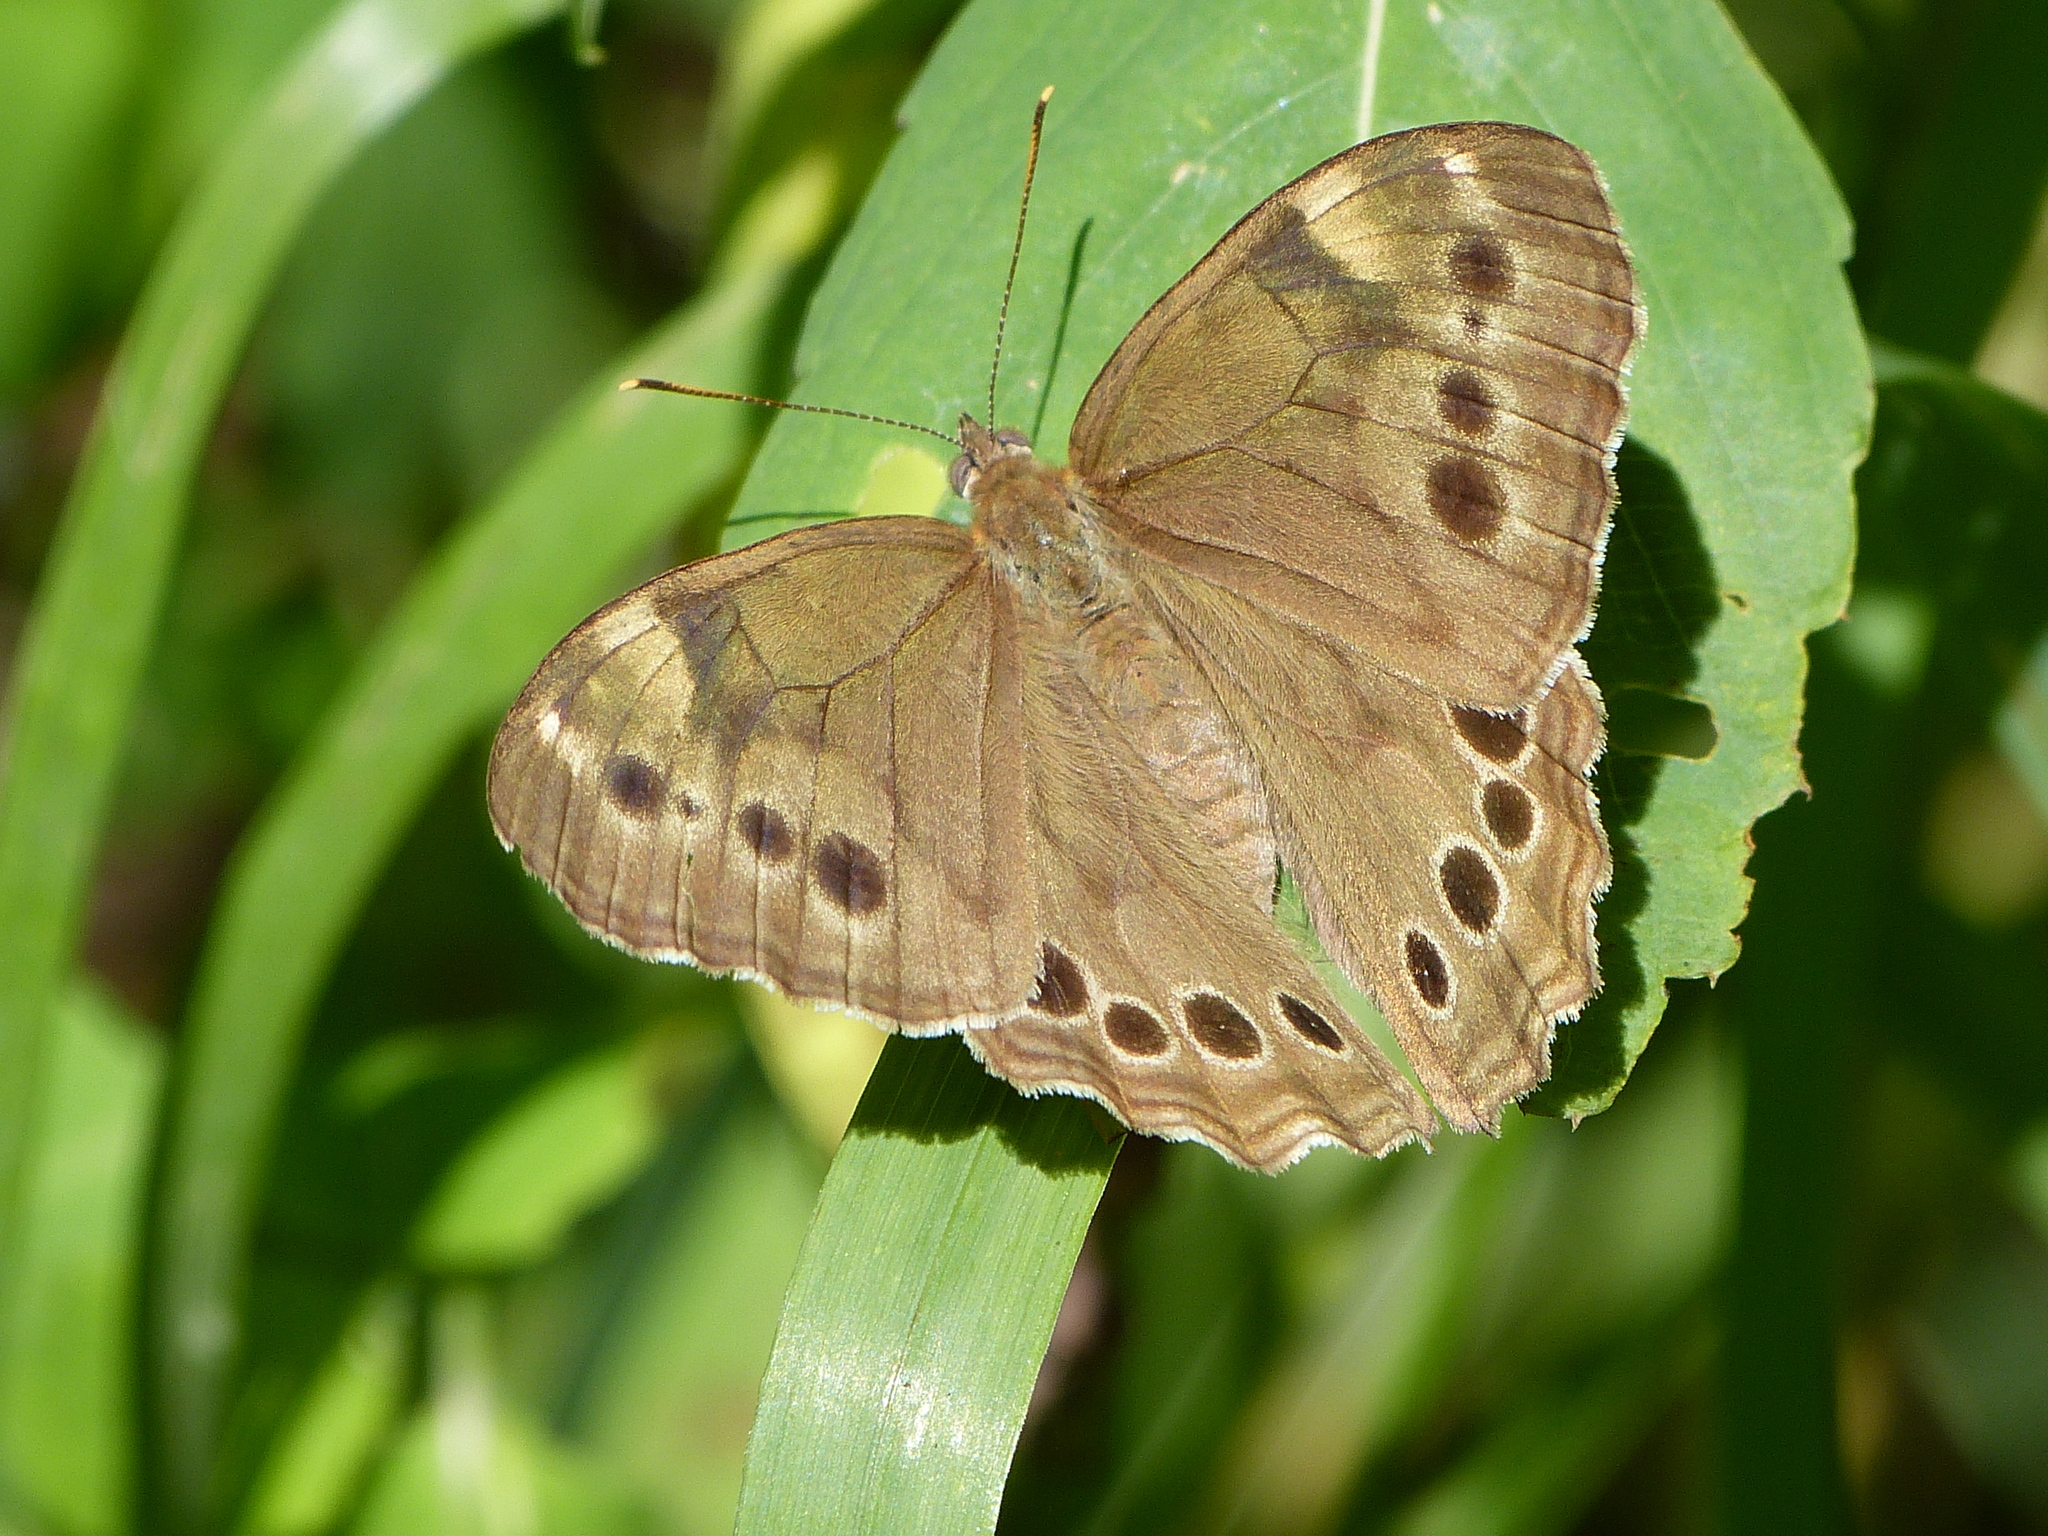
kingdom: Animalia
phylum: Arthropoda
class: Insecta
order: Lepidoptera
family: Nymphalidae
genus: Lethe
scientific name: Lethe anthedon
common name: Northern pearly-eye
